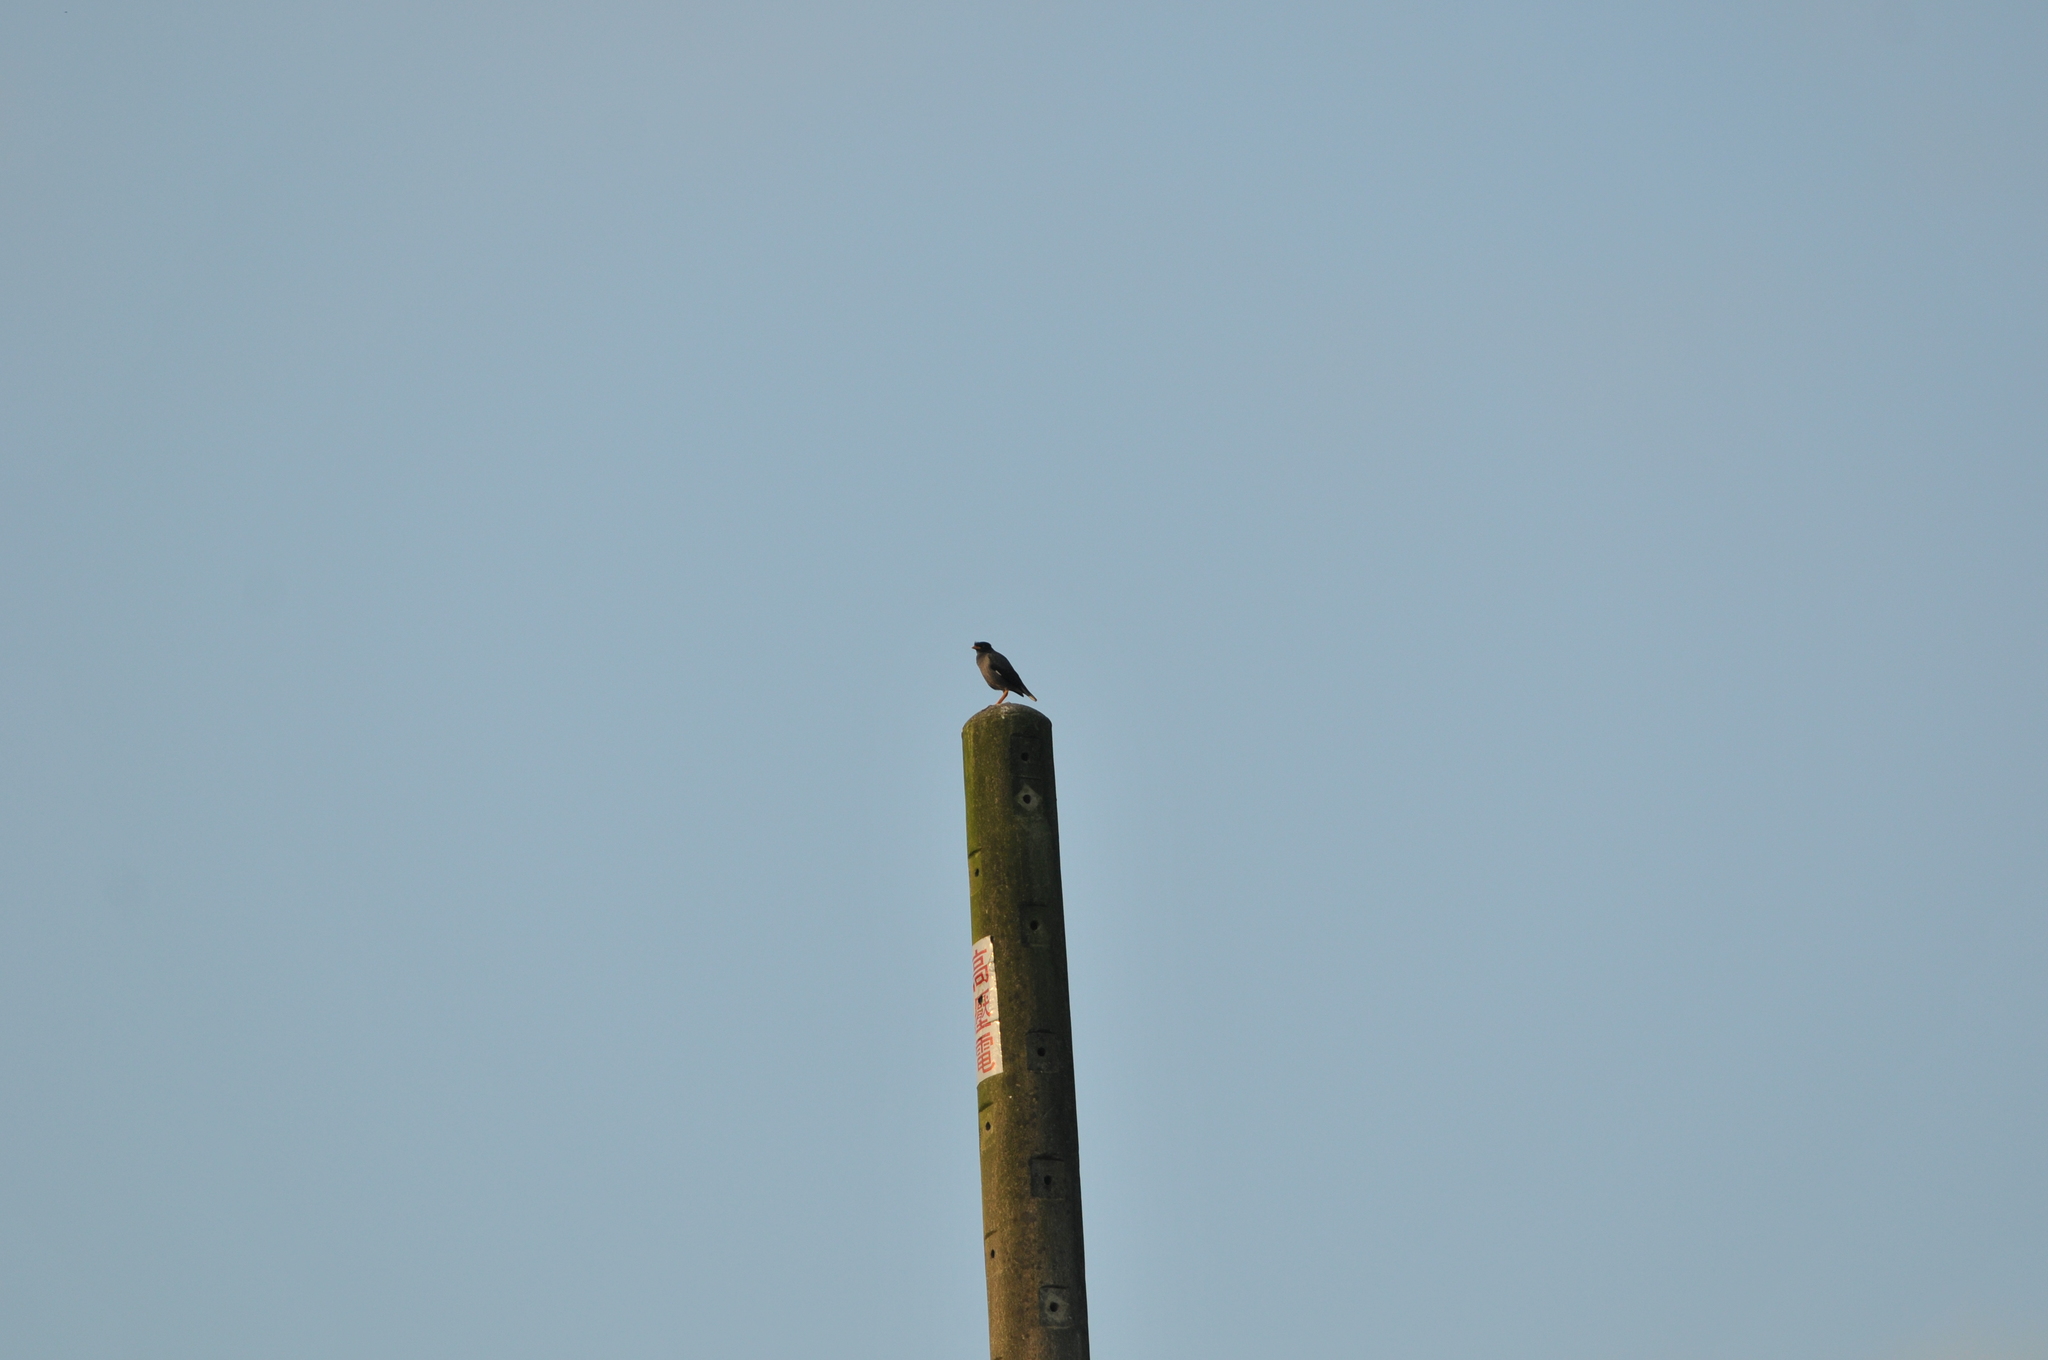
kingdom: Animalia
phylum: Chordata
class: Aves
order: Passeriformes
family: Sturnidae
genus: Acridotheres
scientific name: Acridotheres javanicus
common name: Javan myna
